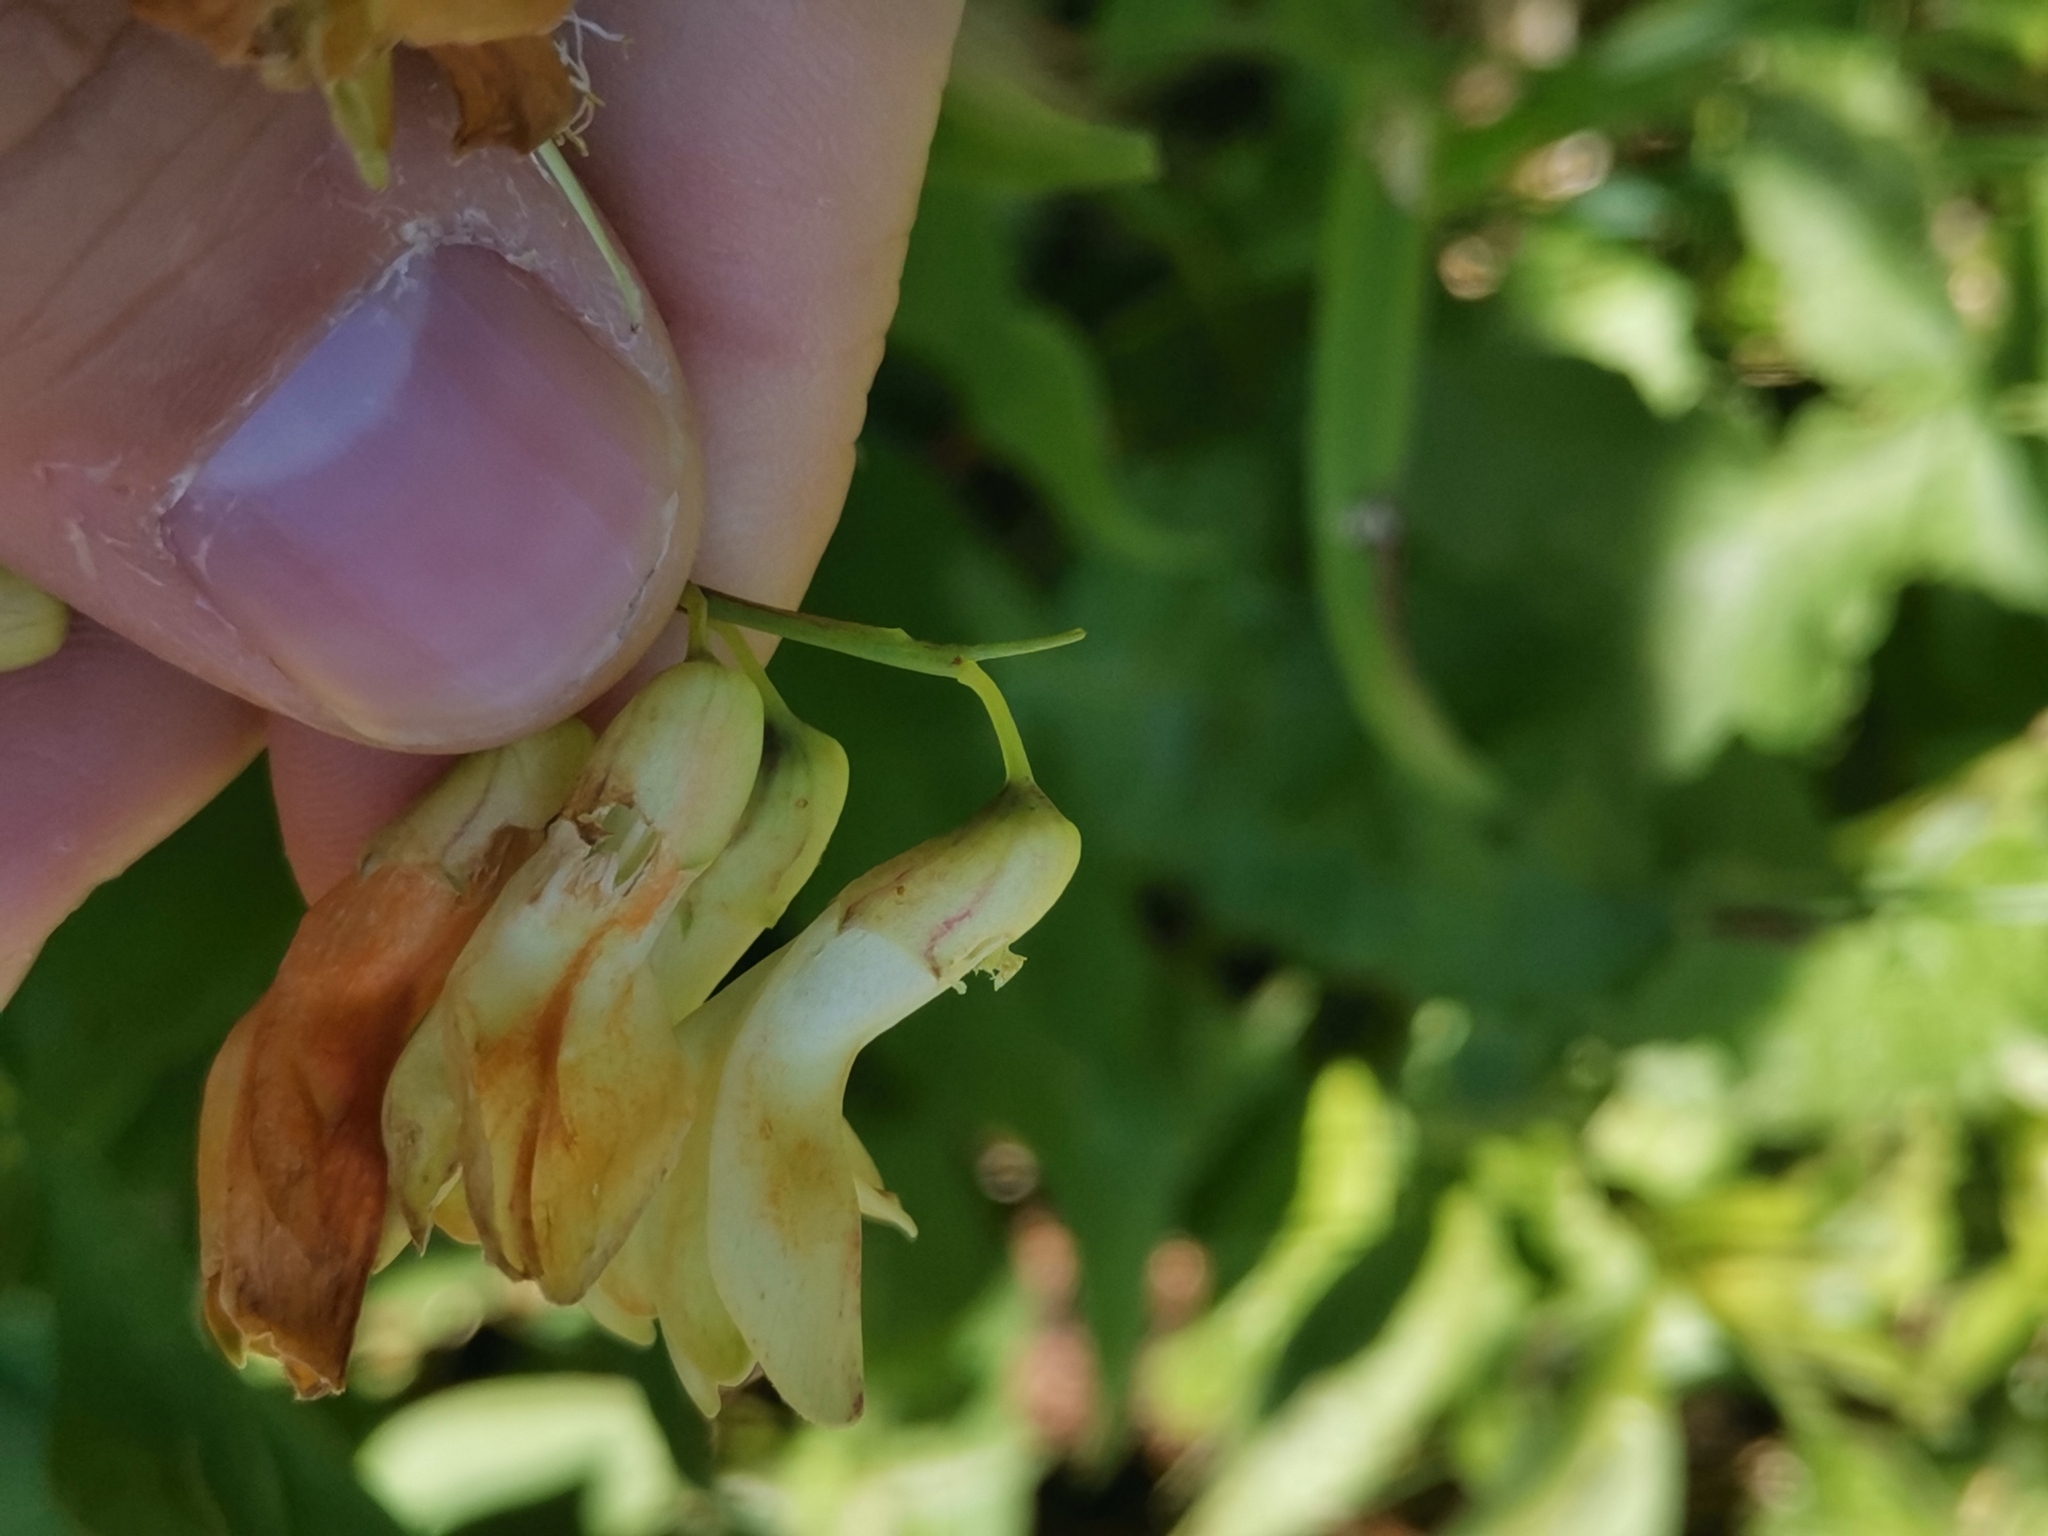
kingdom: Plantae
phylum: Tracheophyta
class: Magnoliopsida
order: Fabales
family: Fabaceae
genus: Lathyrus
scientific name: Lathyrus laevigatus
